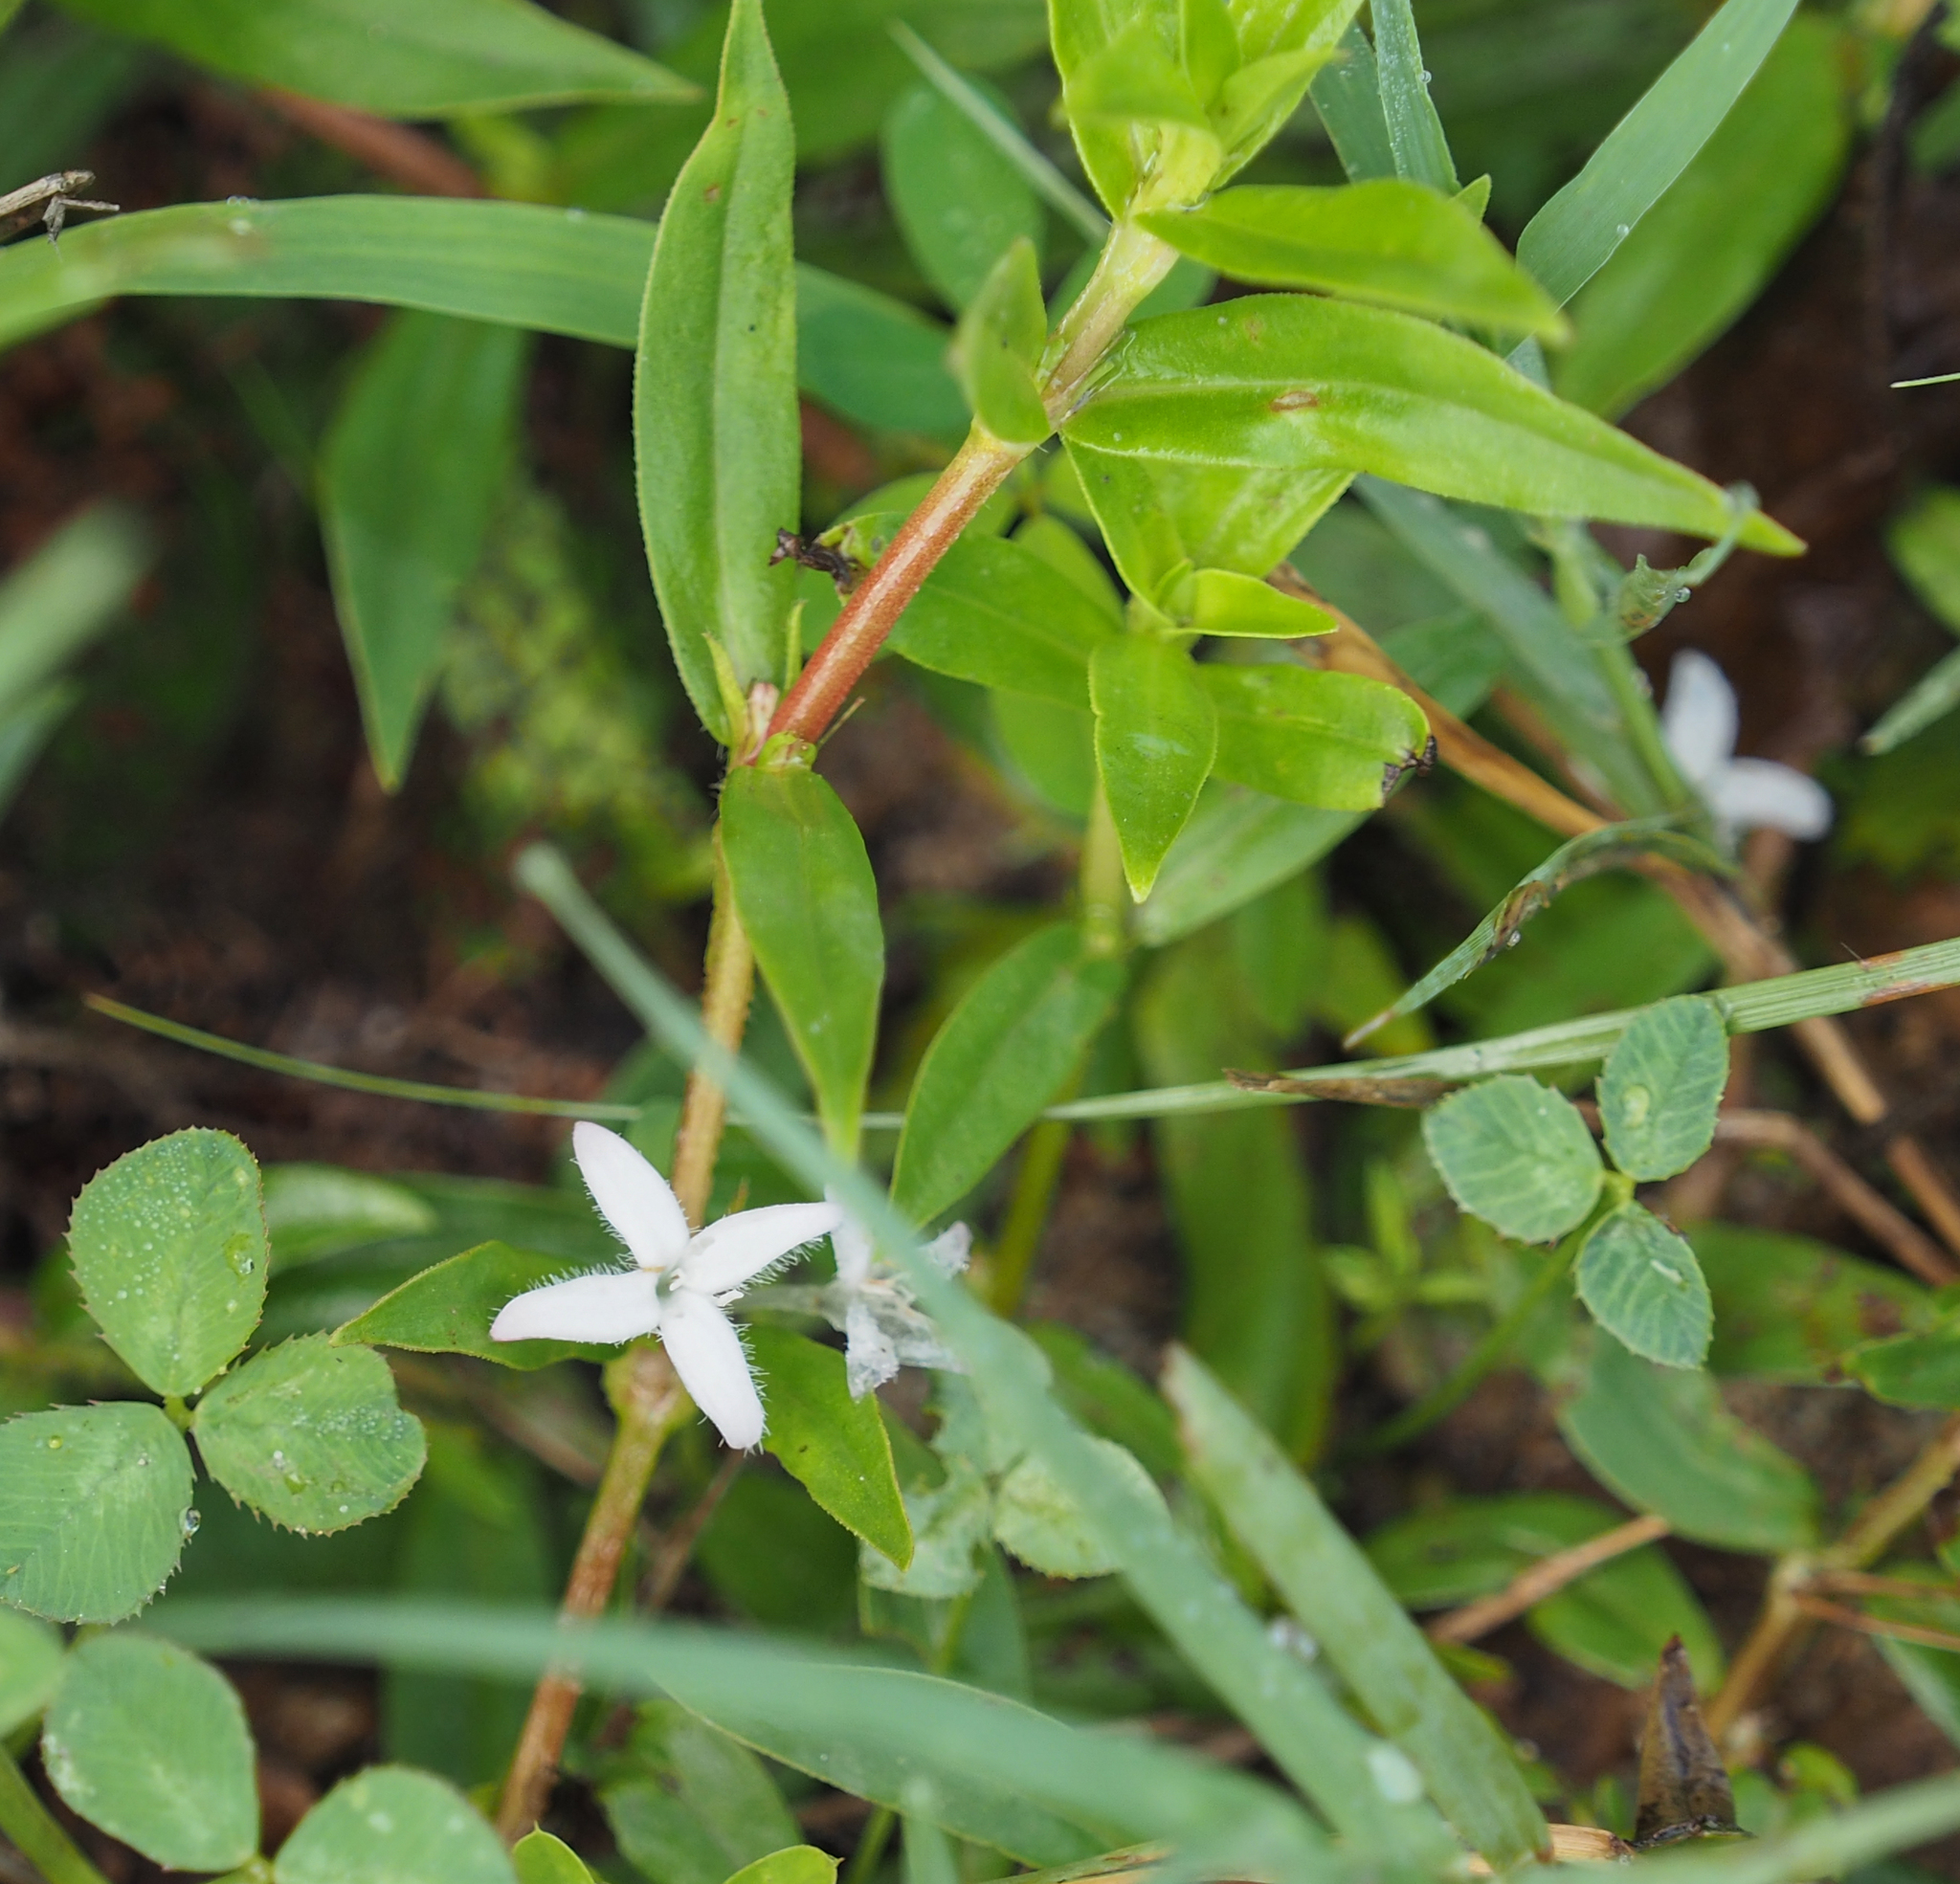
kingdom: Plantae
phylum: Tracheophyta
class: Magnoliopsida
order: Gentianales
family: Rubiaceae
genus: Diodia
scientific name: Diodia virginiana
